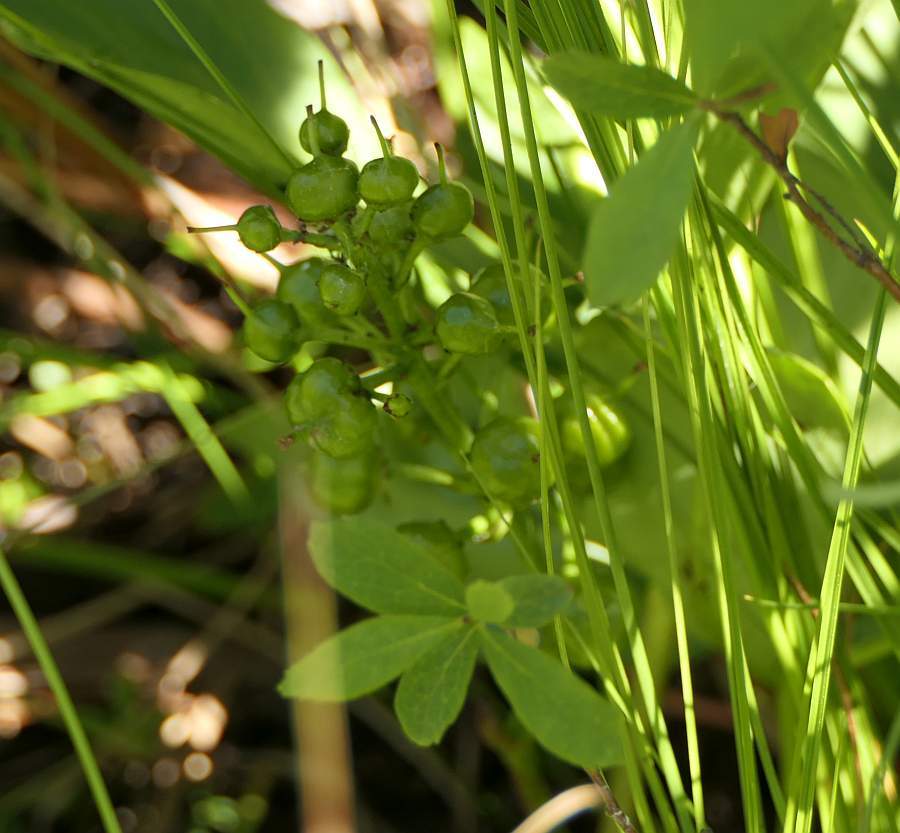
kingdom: Plantae
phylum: Tracheophyta
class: Magnoliopsida
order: Asterales
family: Menyanthaceae
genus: Menyanthes
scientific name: Menyanthes trifoliata
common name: Bogbean
